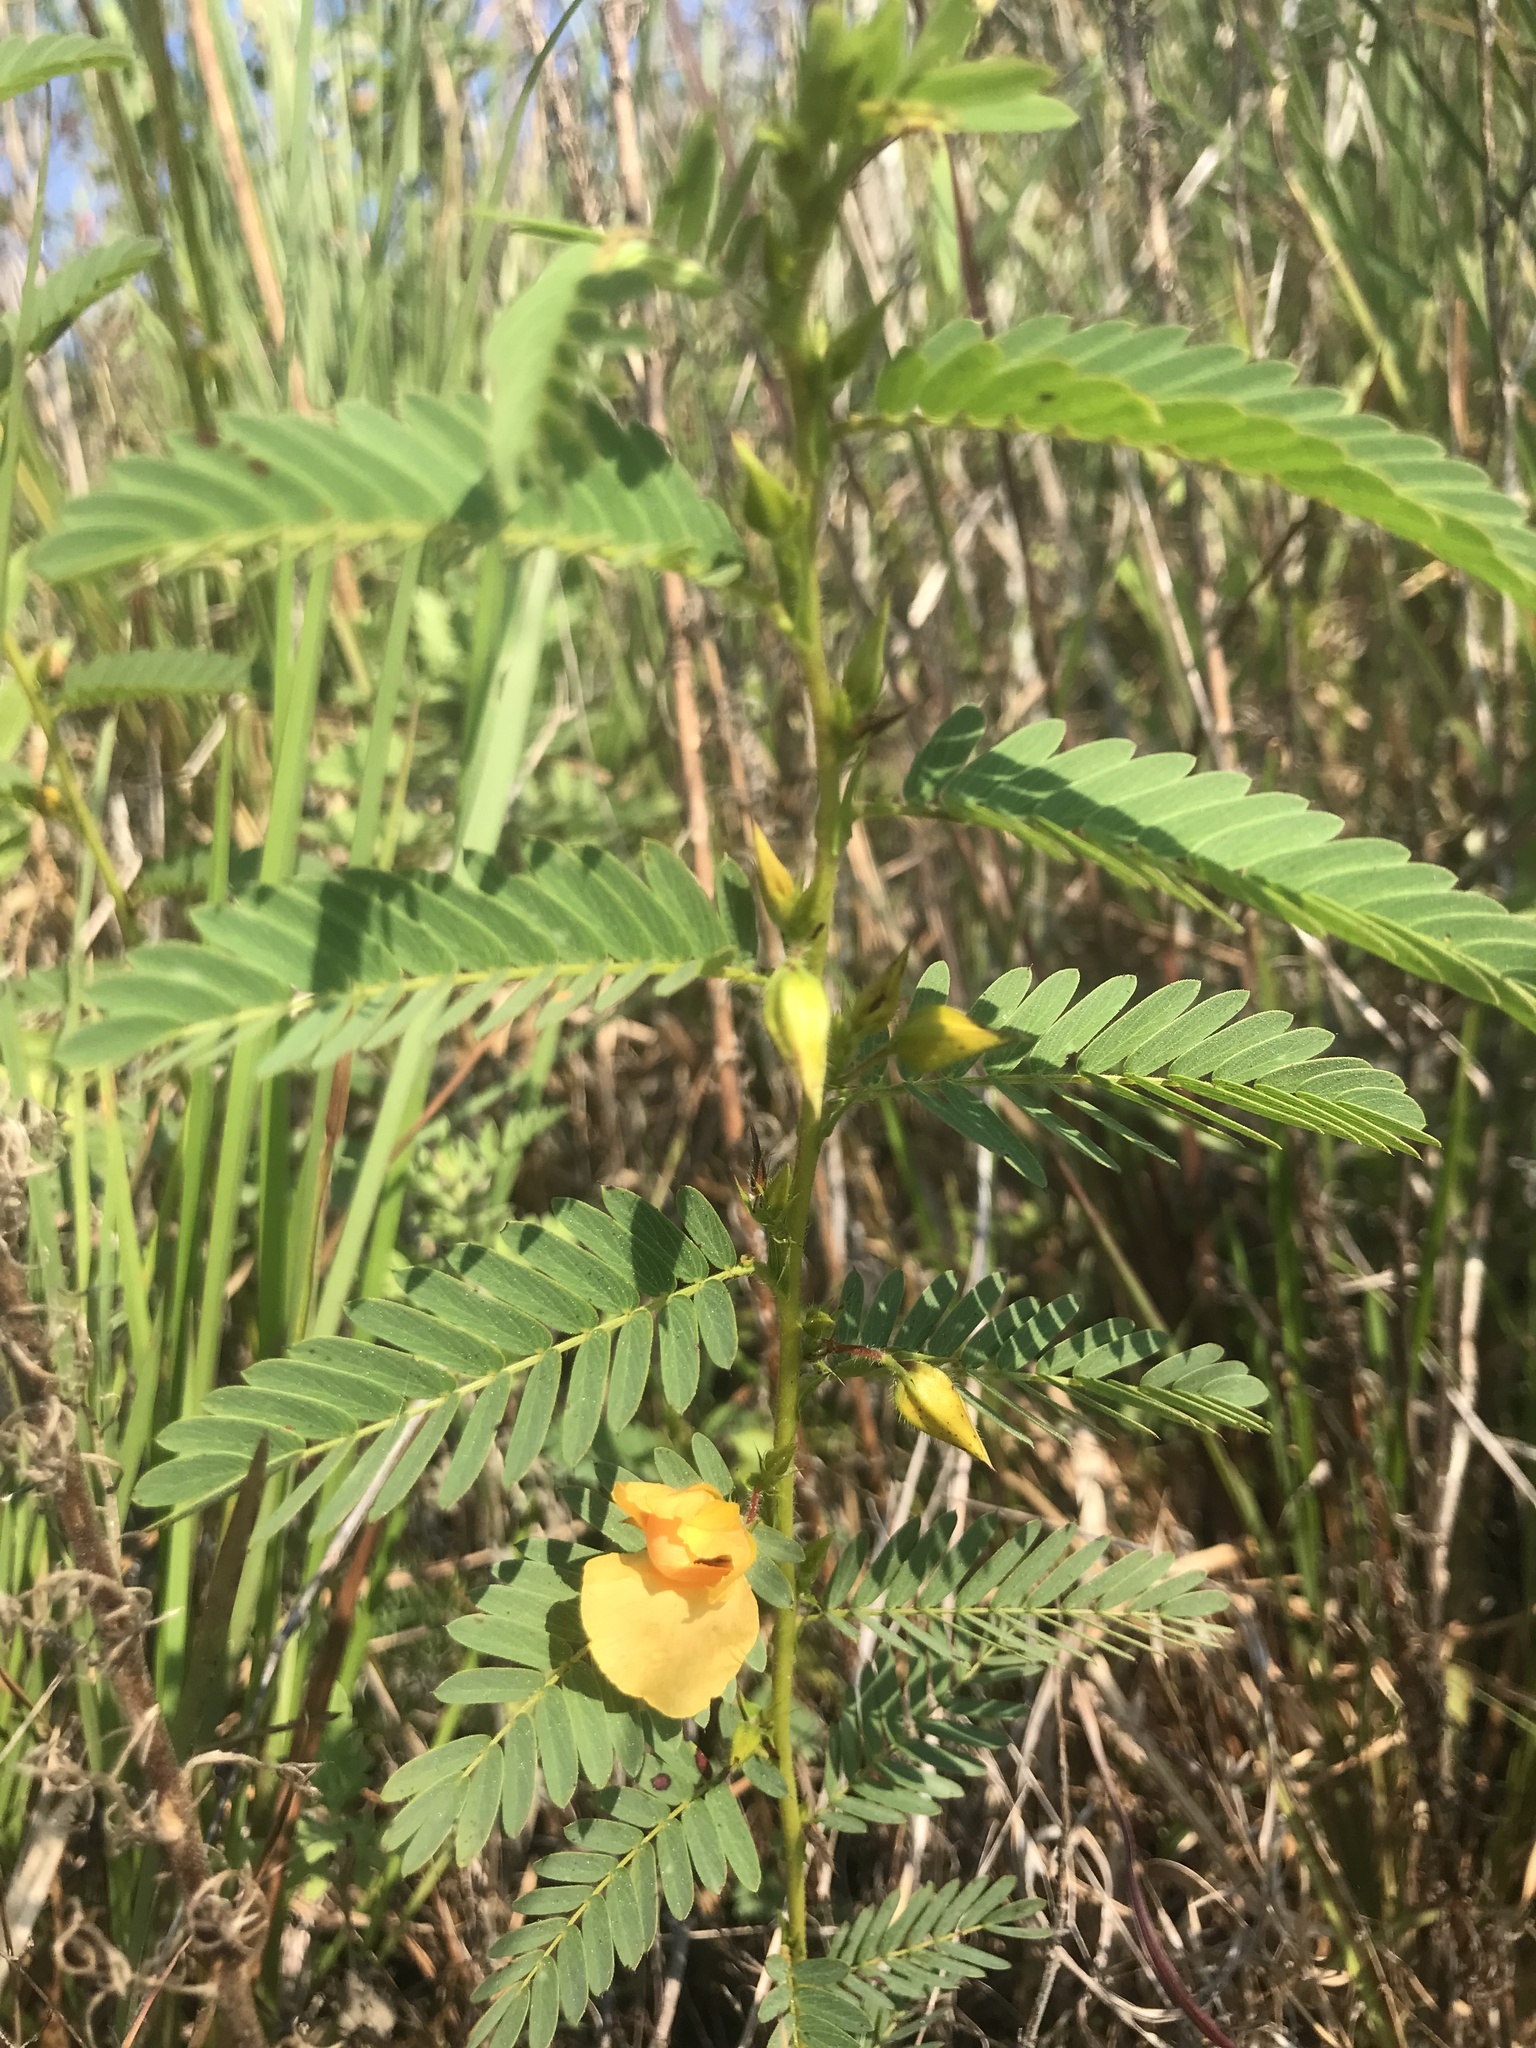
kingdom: Plantae
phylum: Tracheophyta
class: Magnoliopsida
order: Fabales
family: Fabaceae
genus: Chamaecrista
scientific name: Chamaecrista fasciculata
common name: Golden cassia
